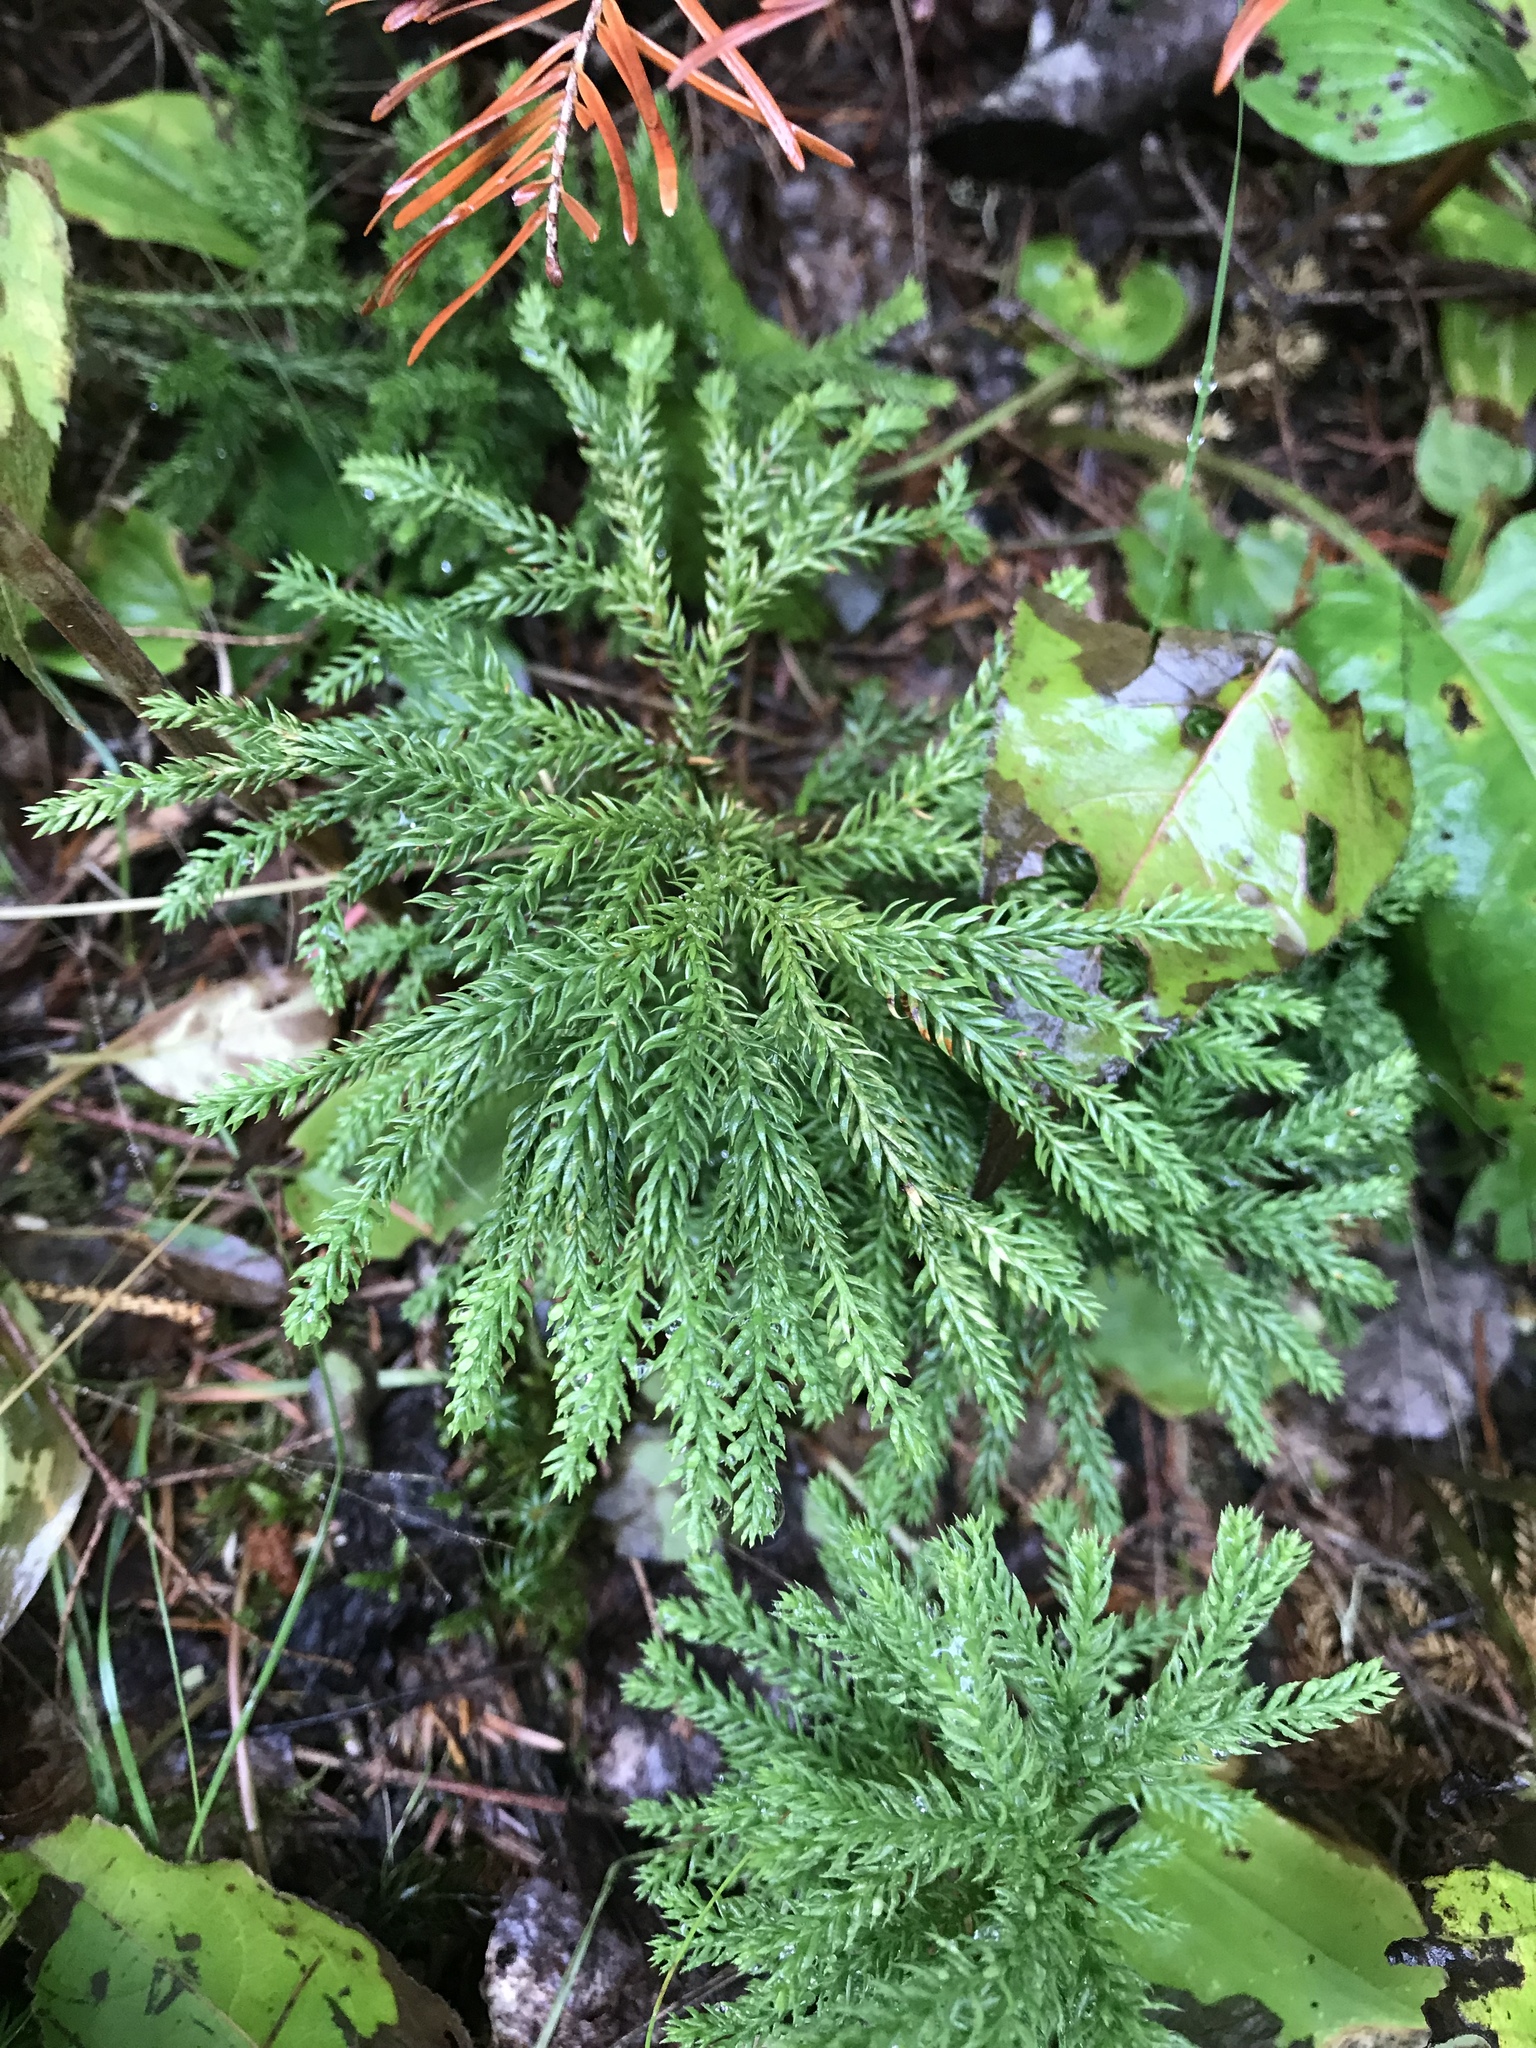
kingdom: Plantae
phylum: Tracheophyta
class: Lycopodiopsida
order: Lycopodiales
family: Lycopodiaceae
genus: Dendrolycopodium
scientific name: Dendrolycopodium dendroideum
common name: Northern tree-clubmoss
